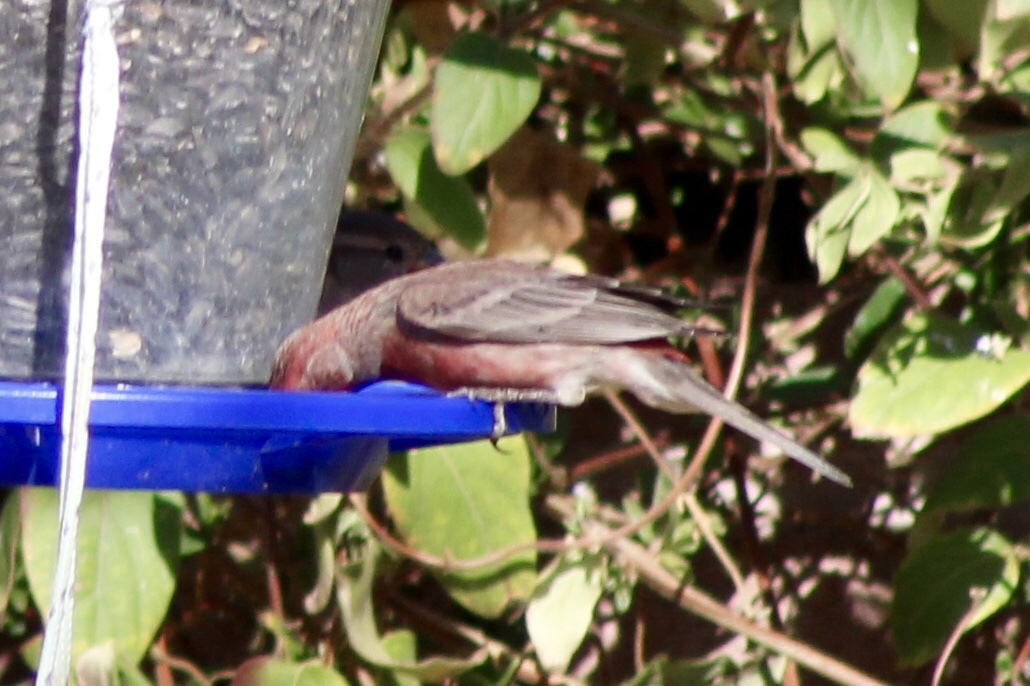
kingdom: Animalia
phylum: Chordata
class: Aves
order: Passeriformes
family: Fringillidae
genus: Haemorhous
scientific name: Haemorhous mexicanus
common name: House finch
